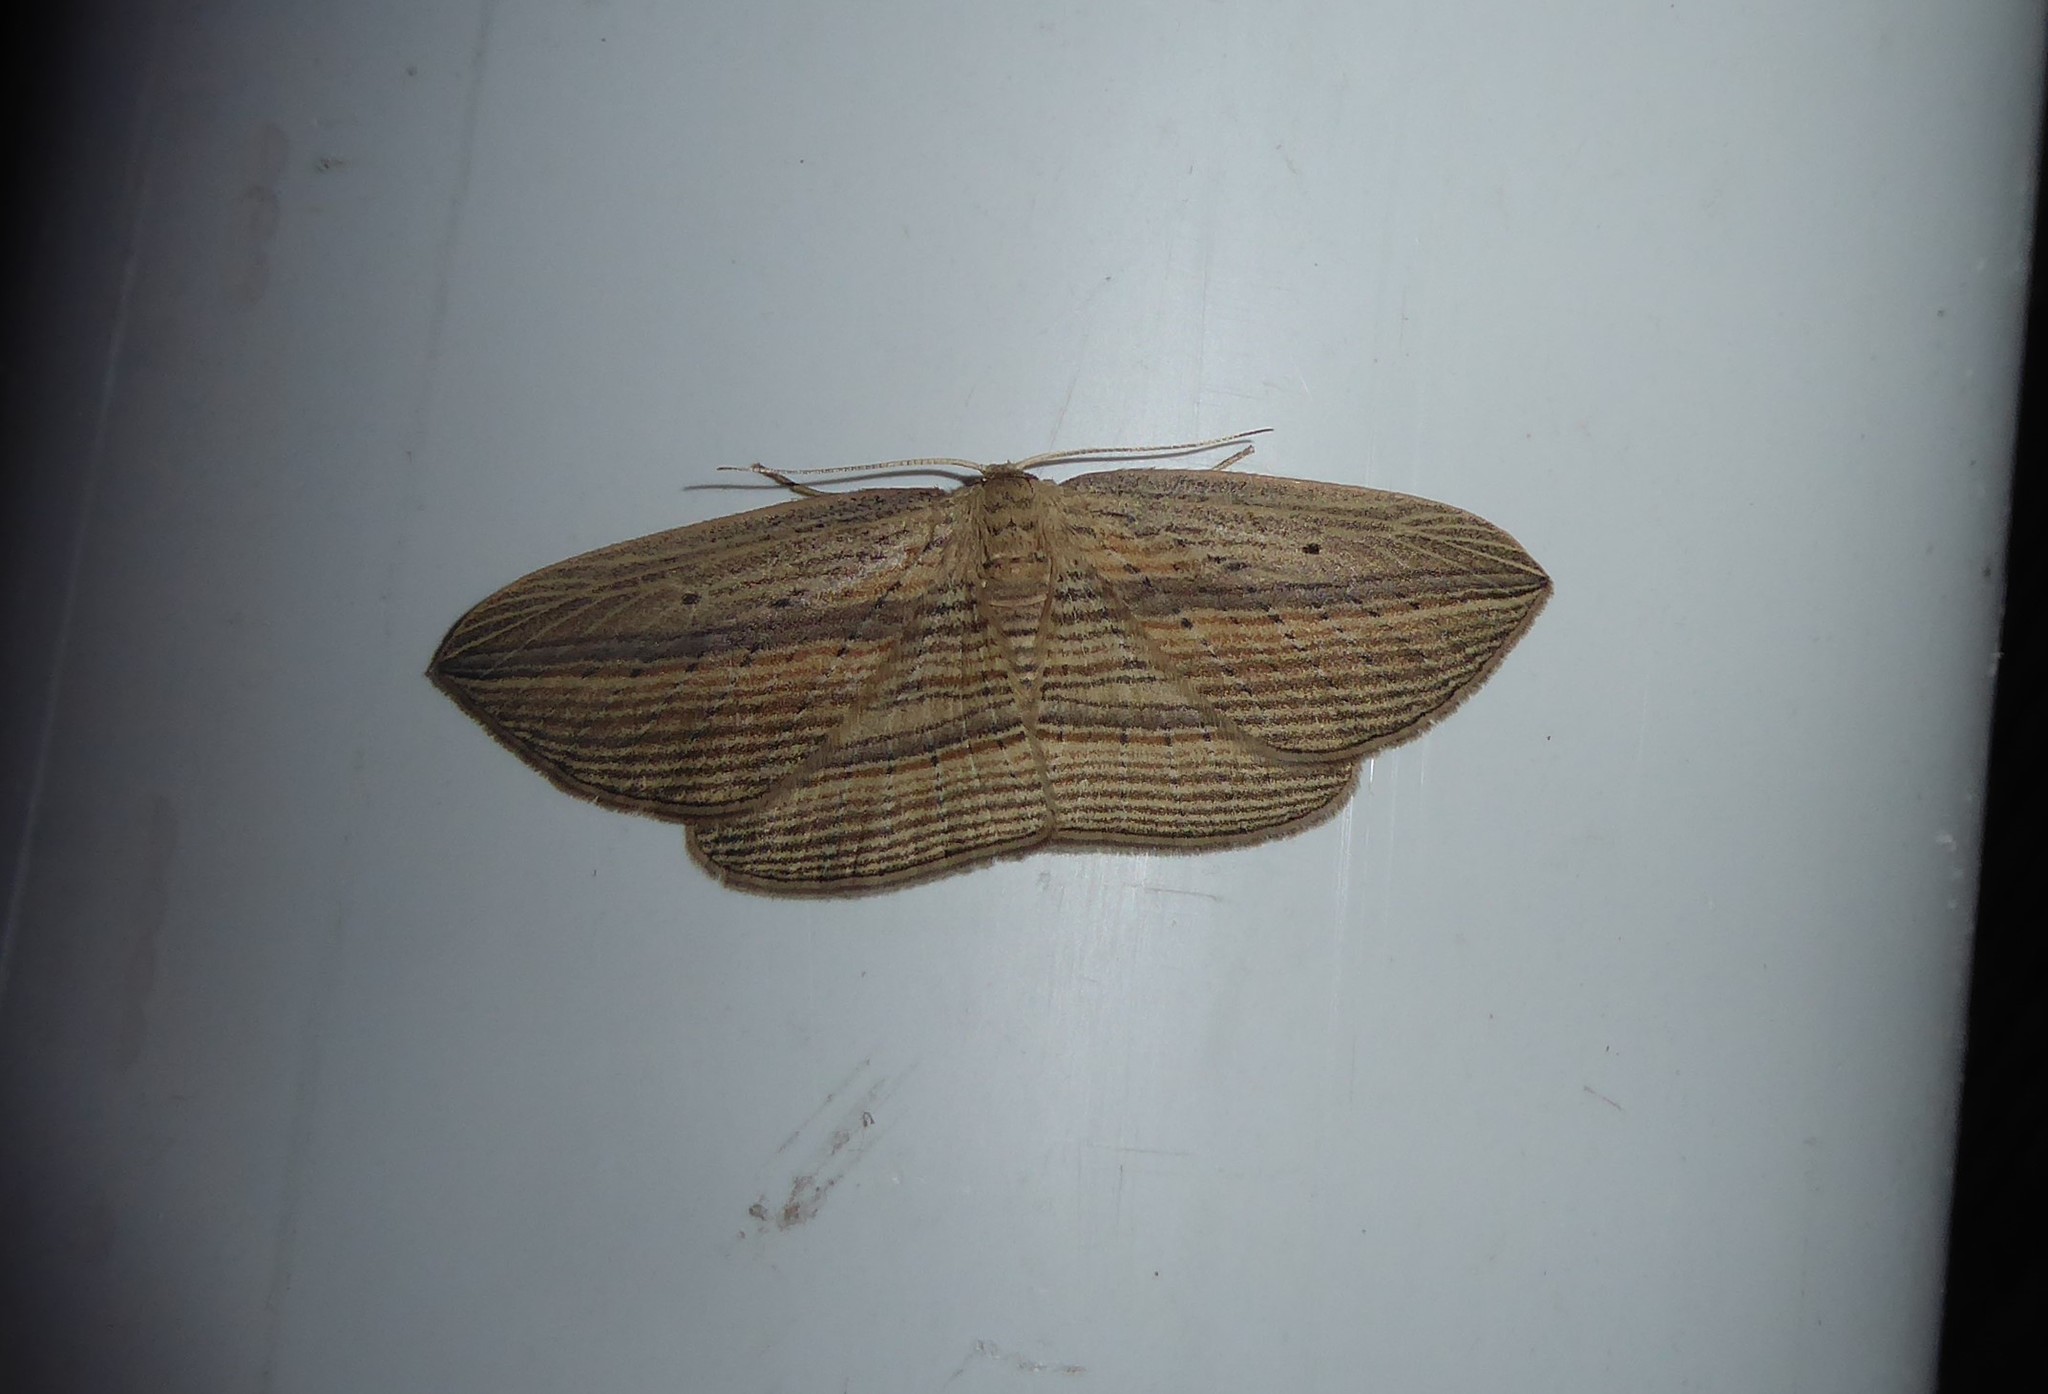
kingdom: Animalia
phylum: Arthropoda
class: Insecta
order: Lepidoptera
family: Geometridae
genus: Epiphryne
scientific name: Epiphryne verriculata
